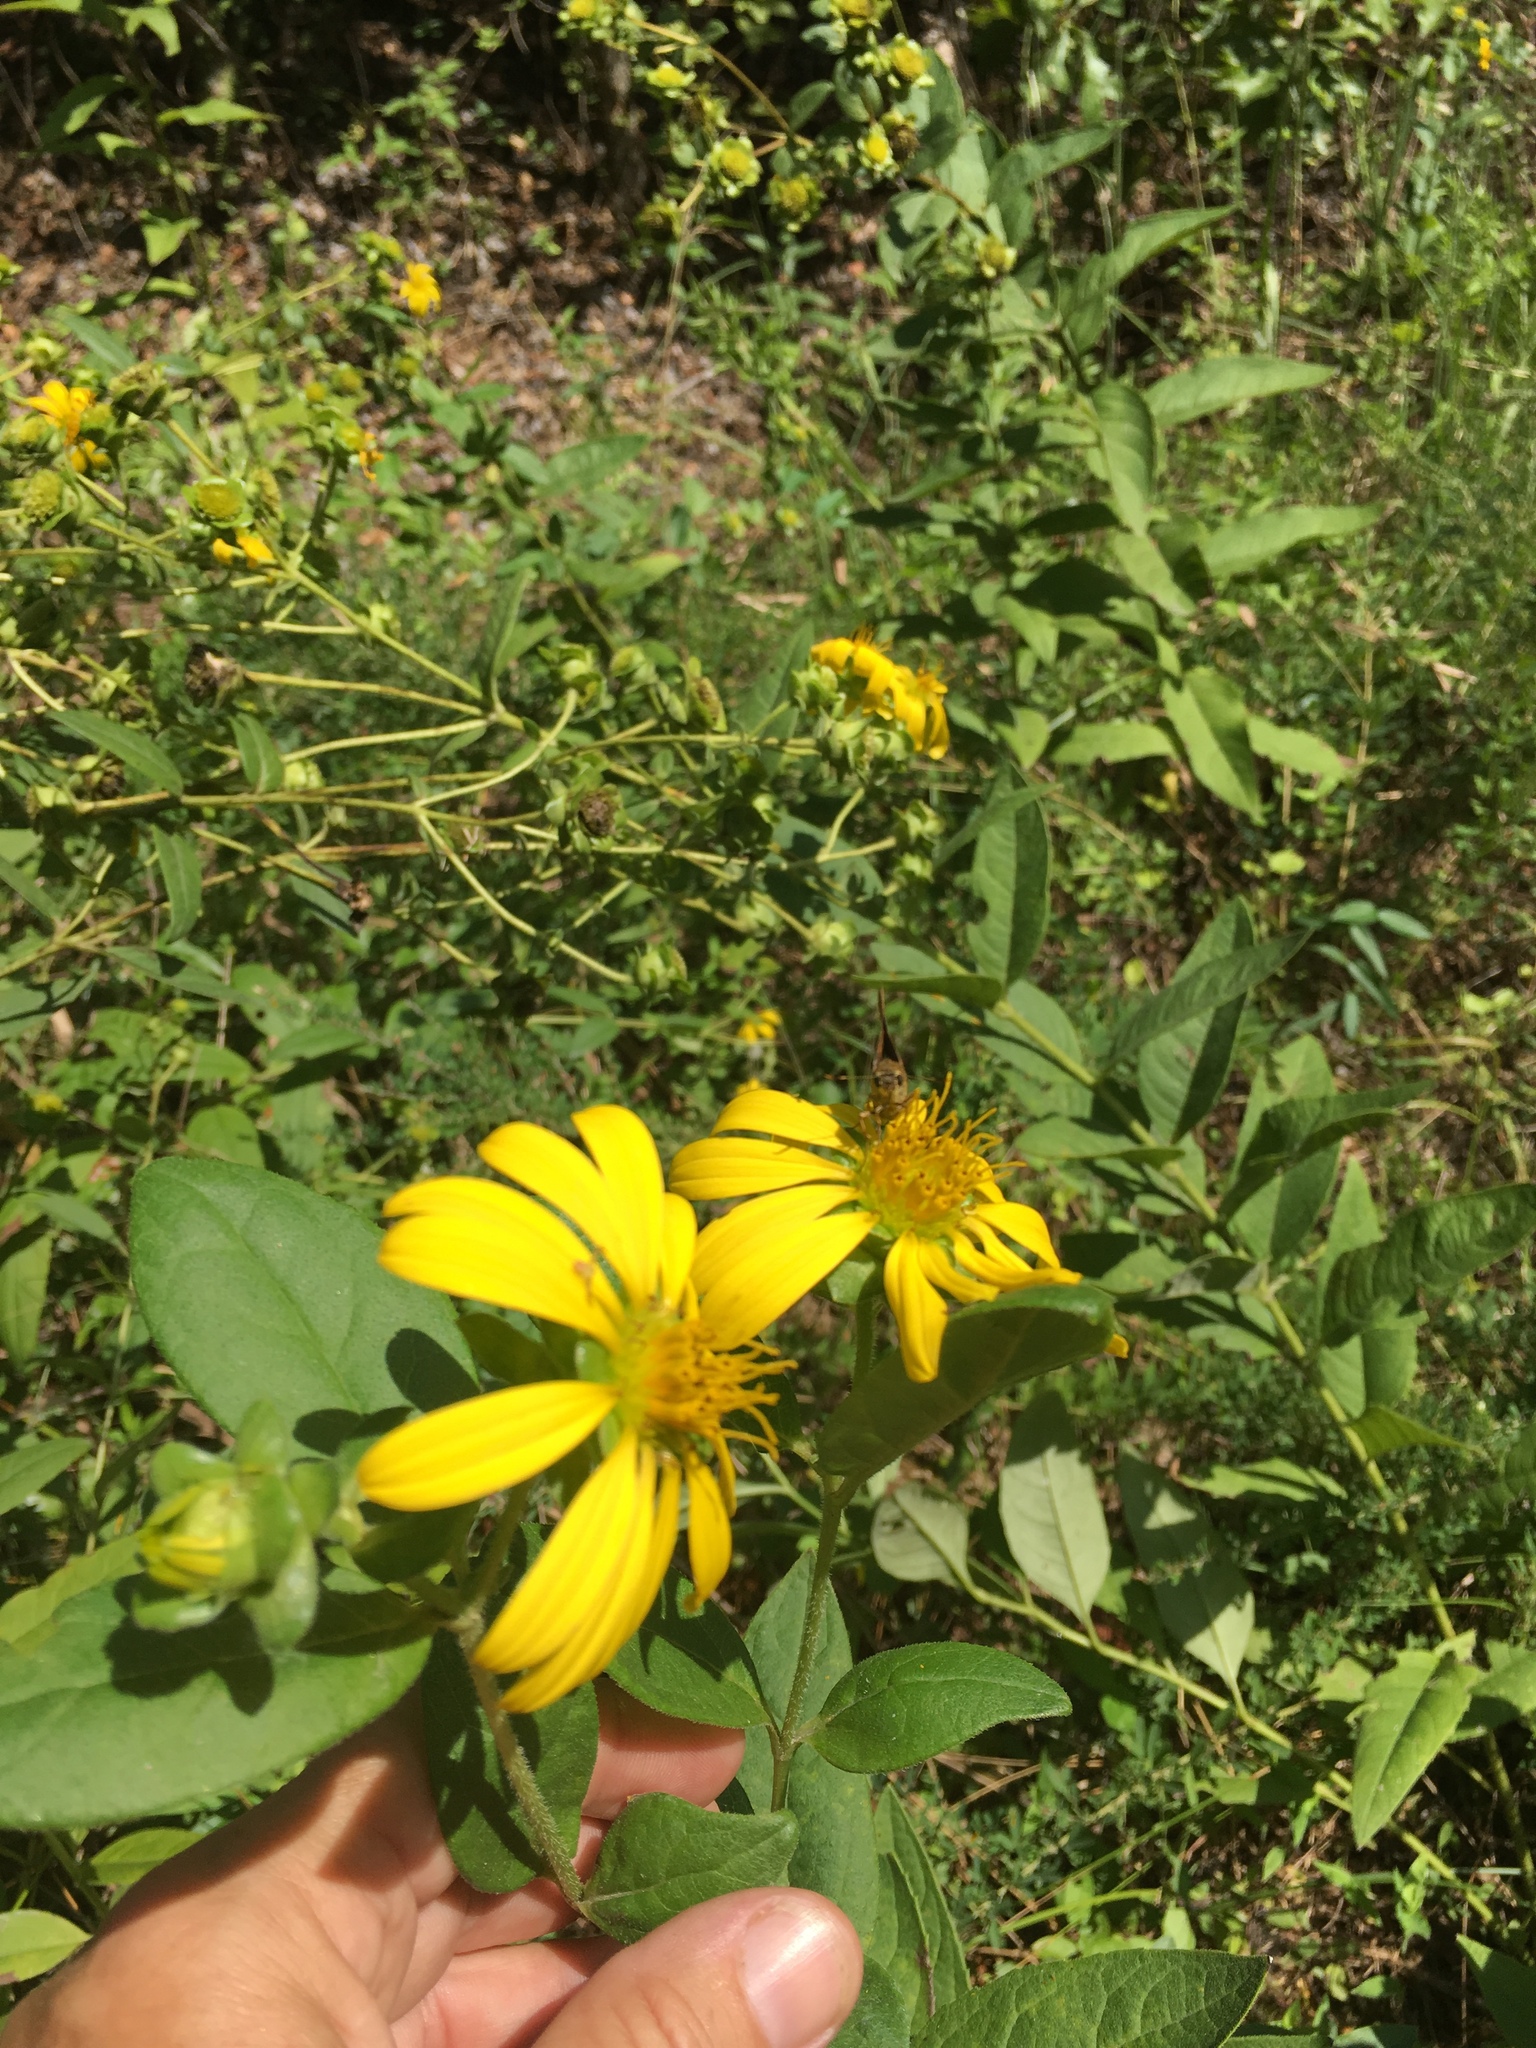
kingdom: Plantae
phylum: Tracheophyta
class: Magnoliopsida
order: Asterales
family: Asteraceae
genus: Silphium
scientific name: Silphium asteriscus
